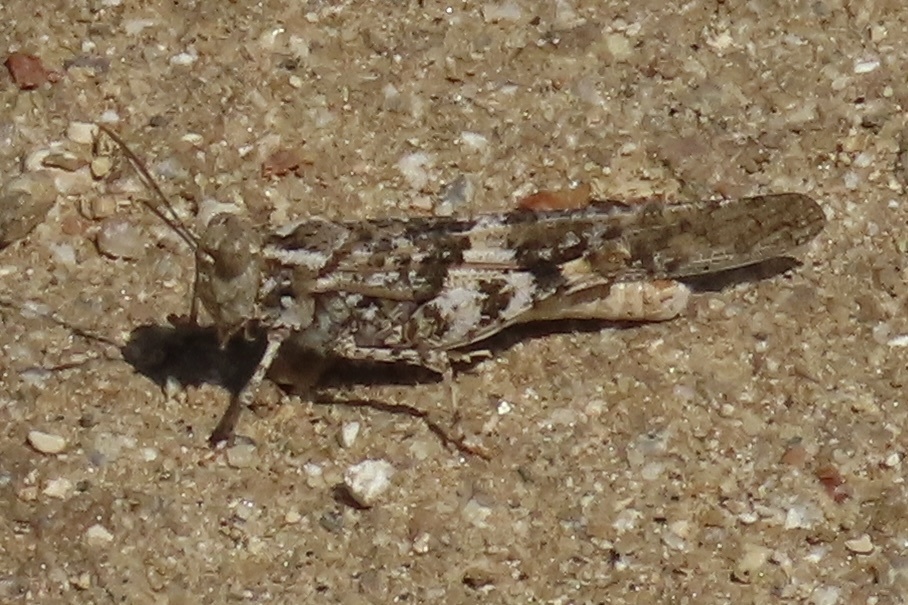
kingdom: Animalia
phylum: Arthropoda
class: Insecta
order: Orthoptera
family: Acrididae
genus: Trimerotropis
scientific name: Trimerotropis pallidipennis
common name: Pallid-winged grasshopper
